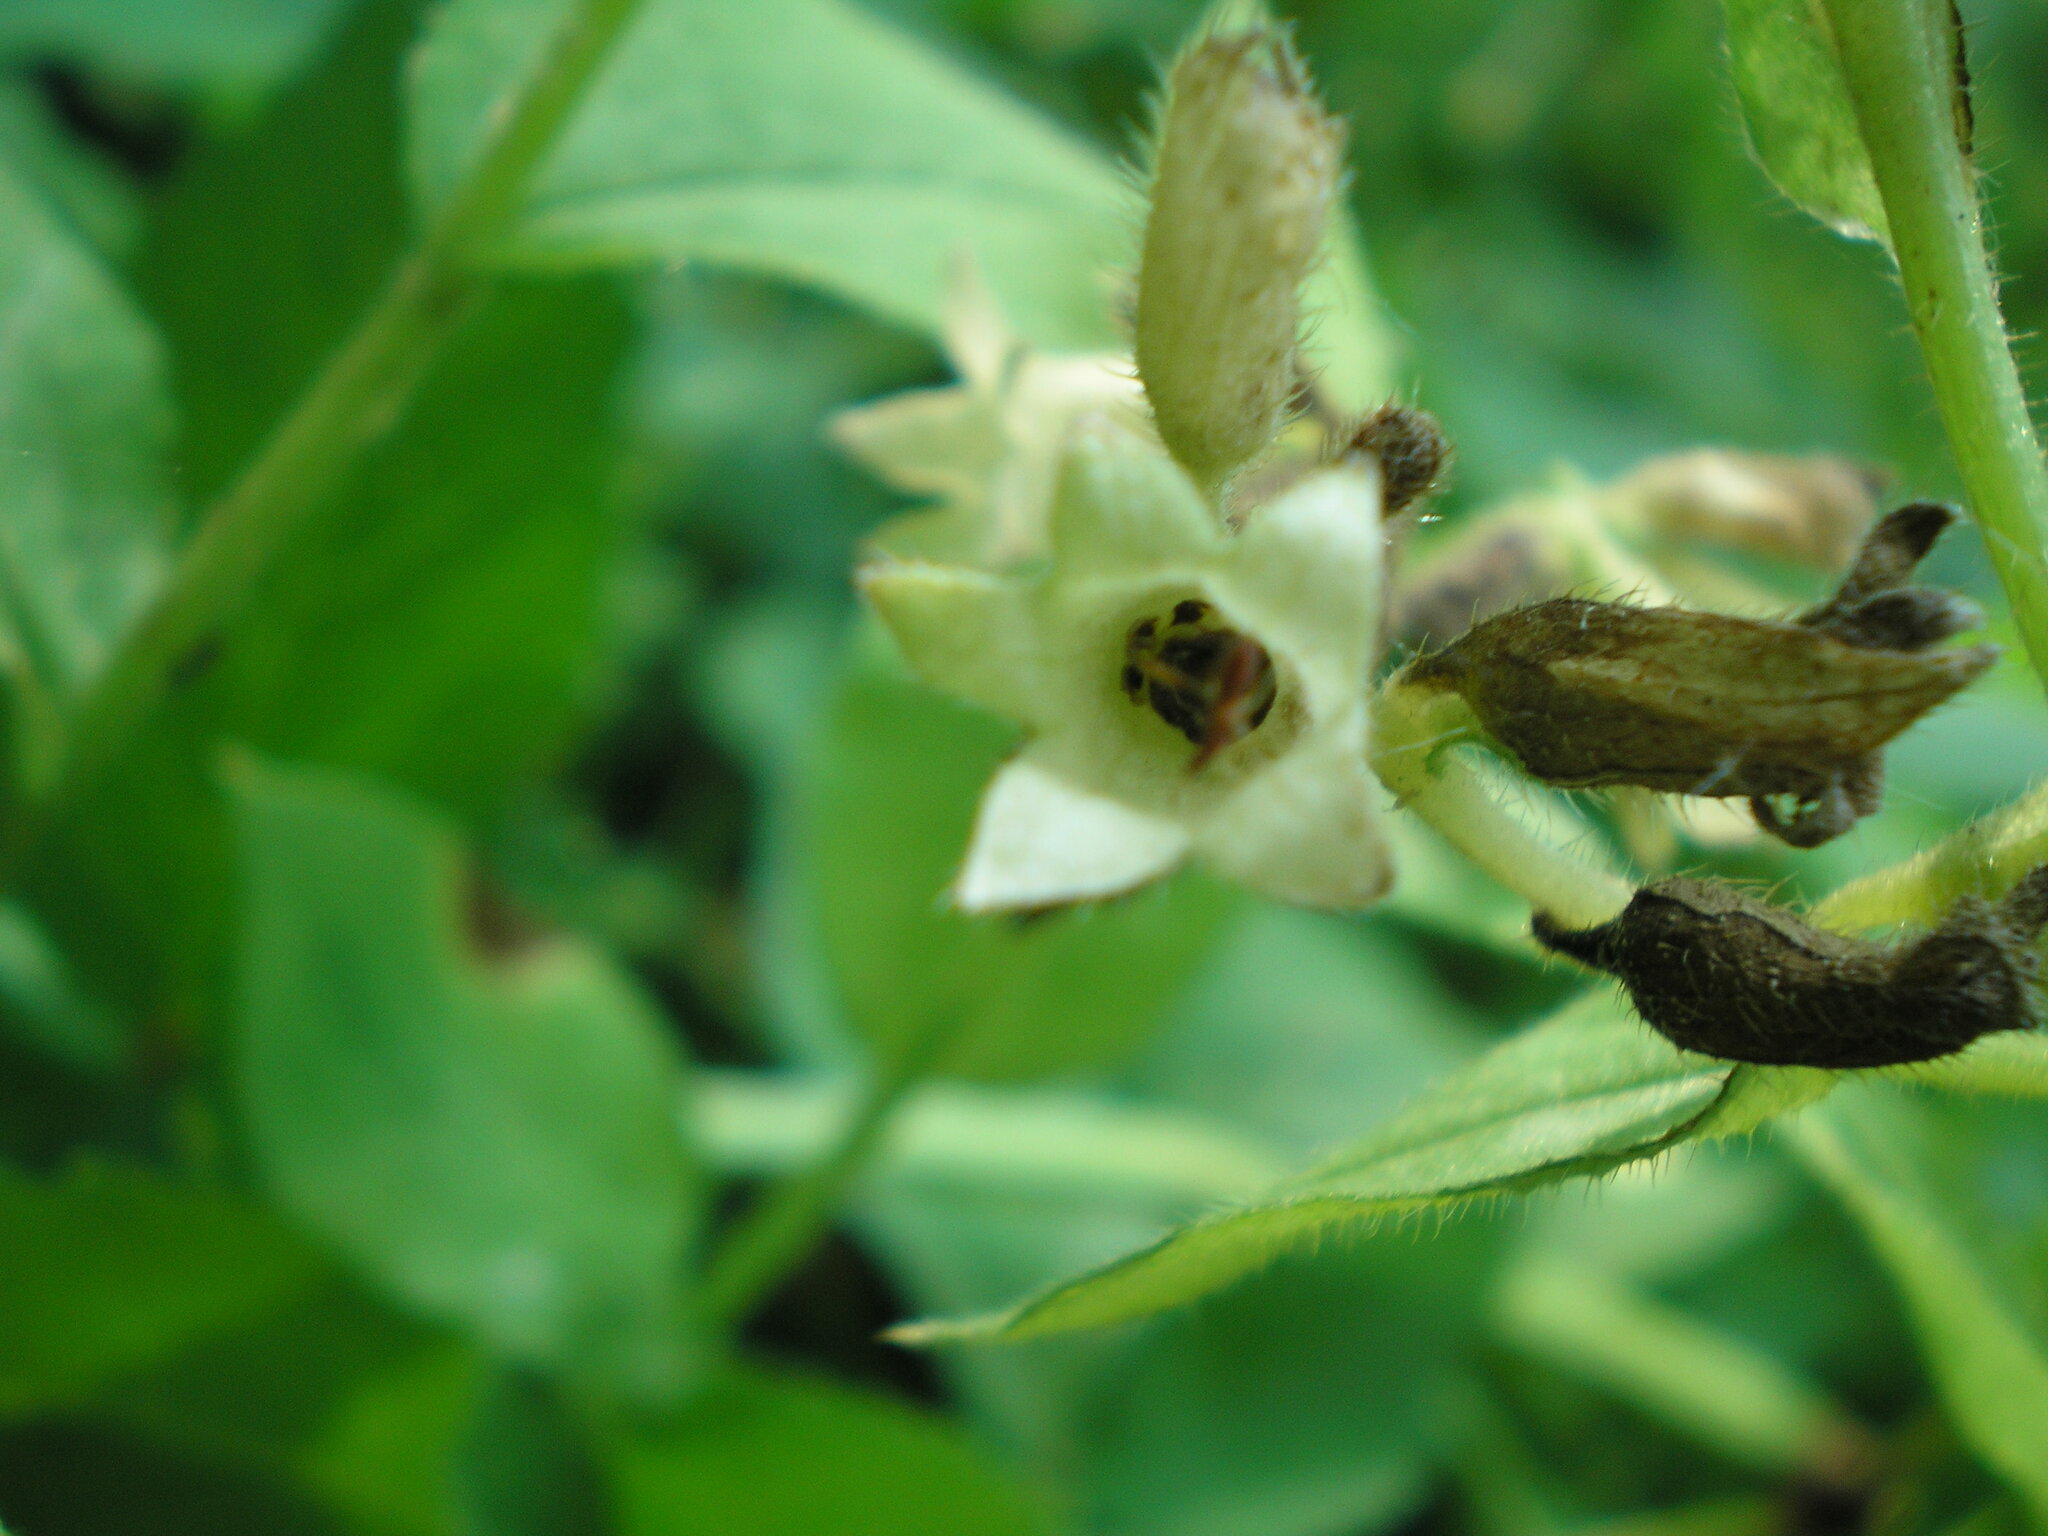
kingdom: Plantae
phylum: Tracheophyta
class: Magnoliopsida
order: Boraginales
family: Boraginaceae
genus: Pulmonaria
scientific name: Pulmonaria obscura
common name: Suffolk lungwort
